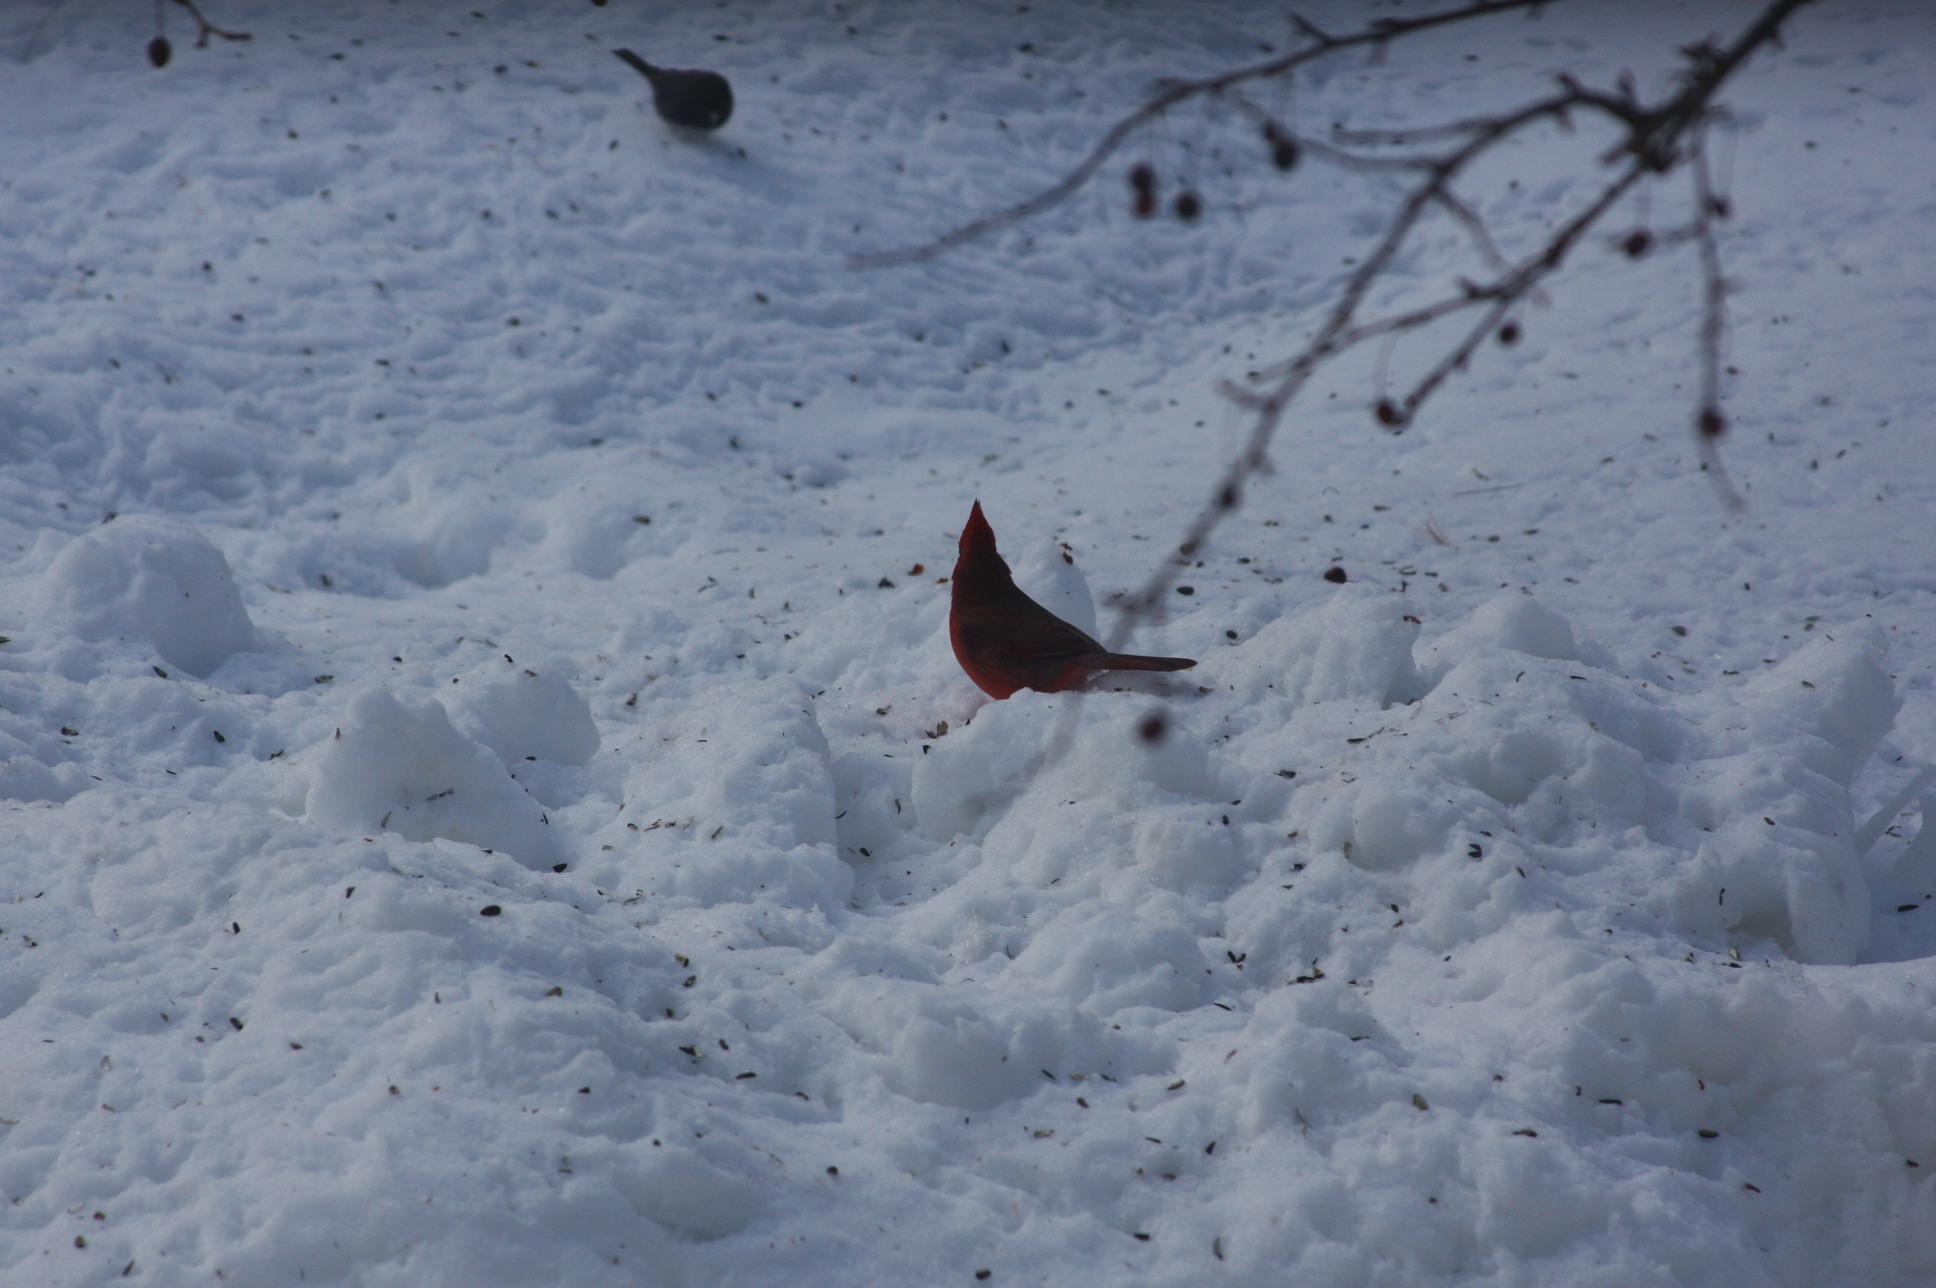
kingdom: Animalia
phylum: Chordata
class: Aves
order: Passeriformes
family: Cardinalidae
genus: Cardinalis
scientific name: Cardinalis cardinalis
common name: Northern cardinal
